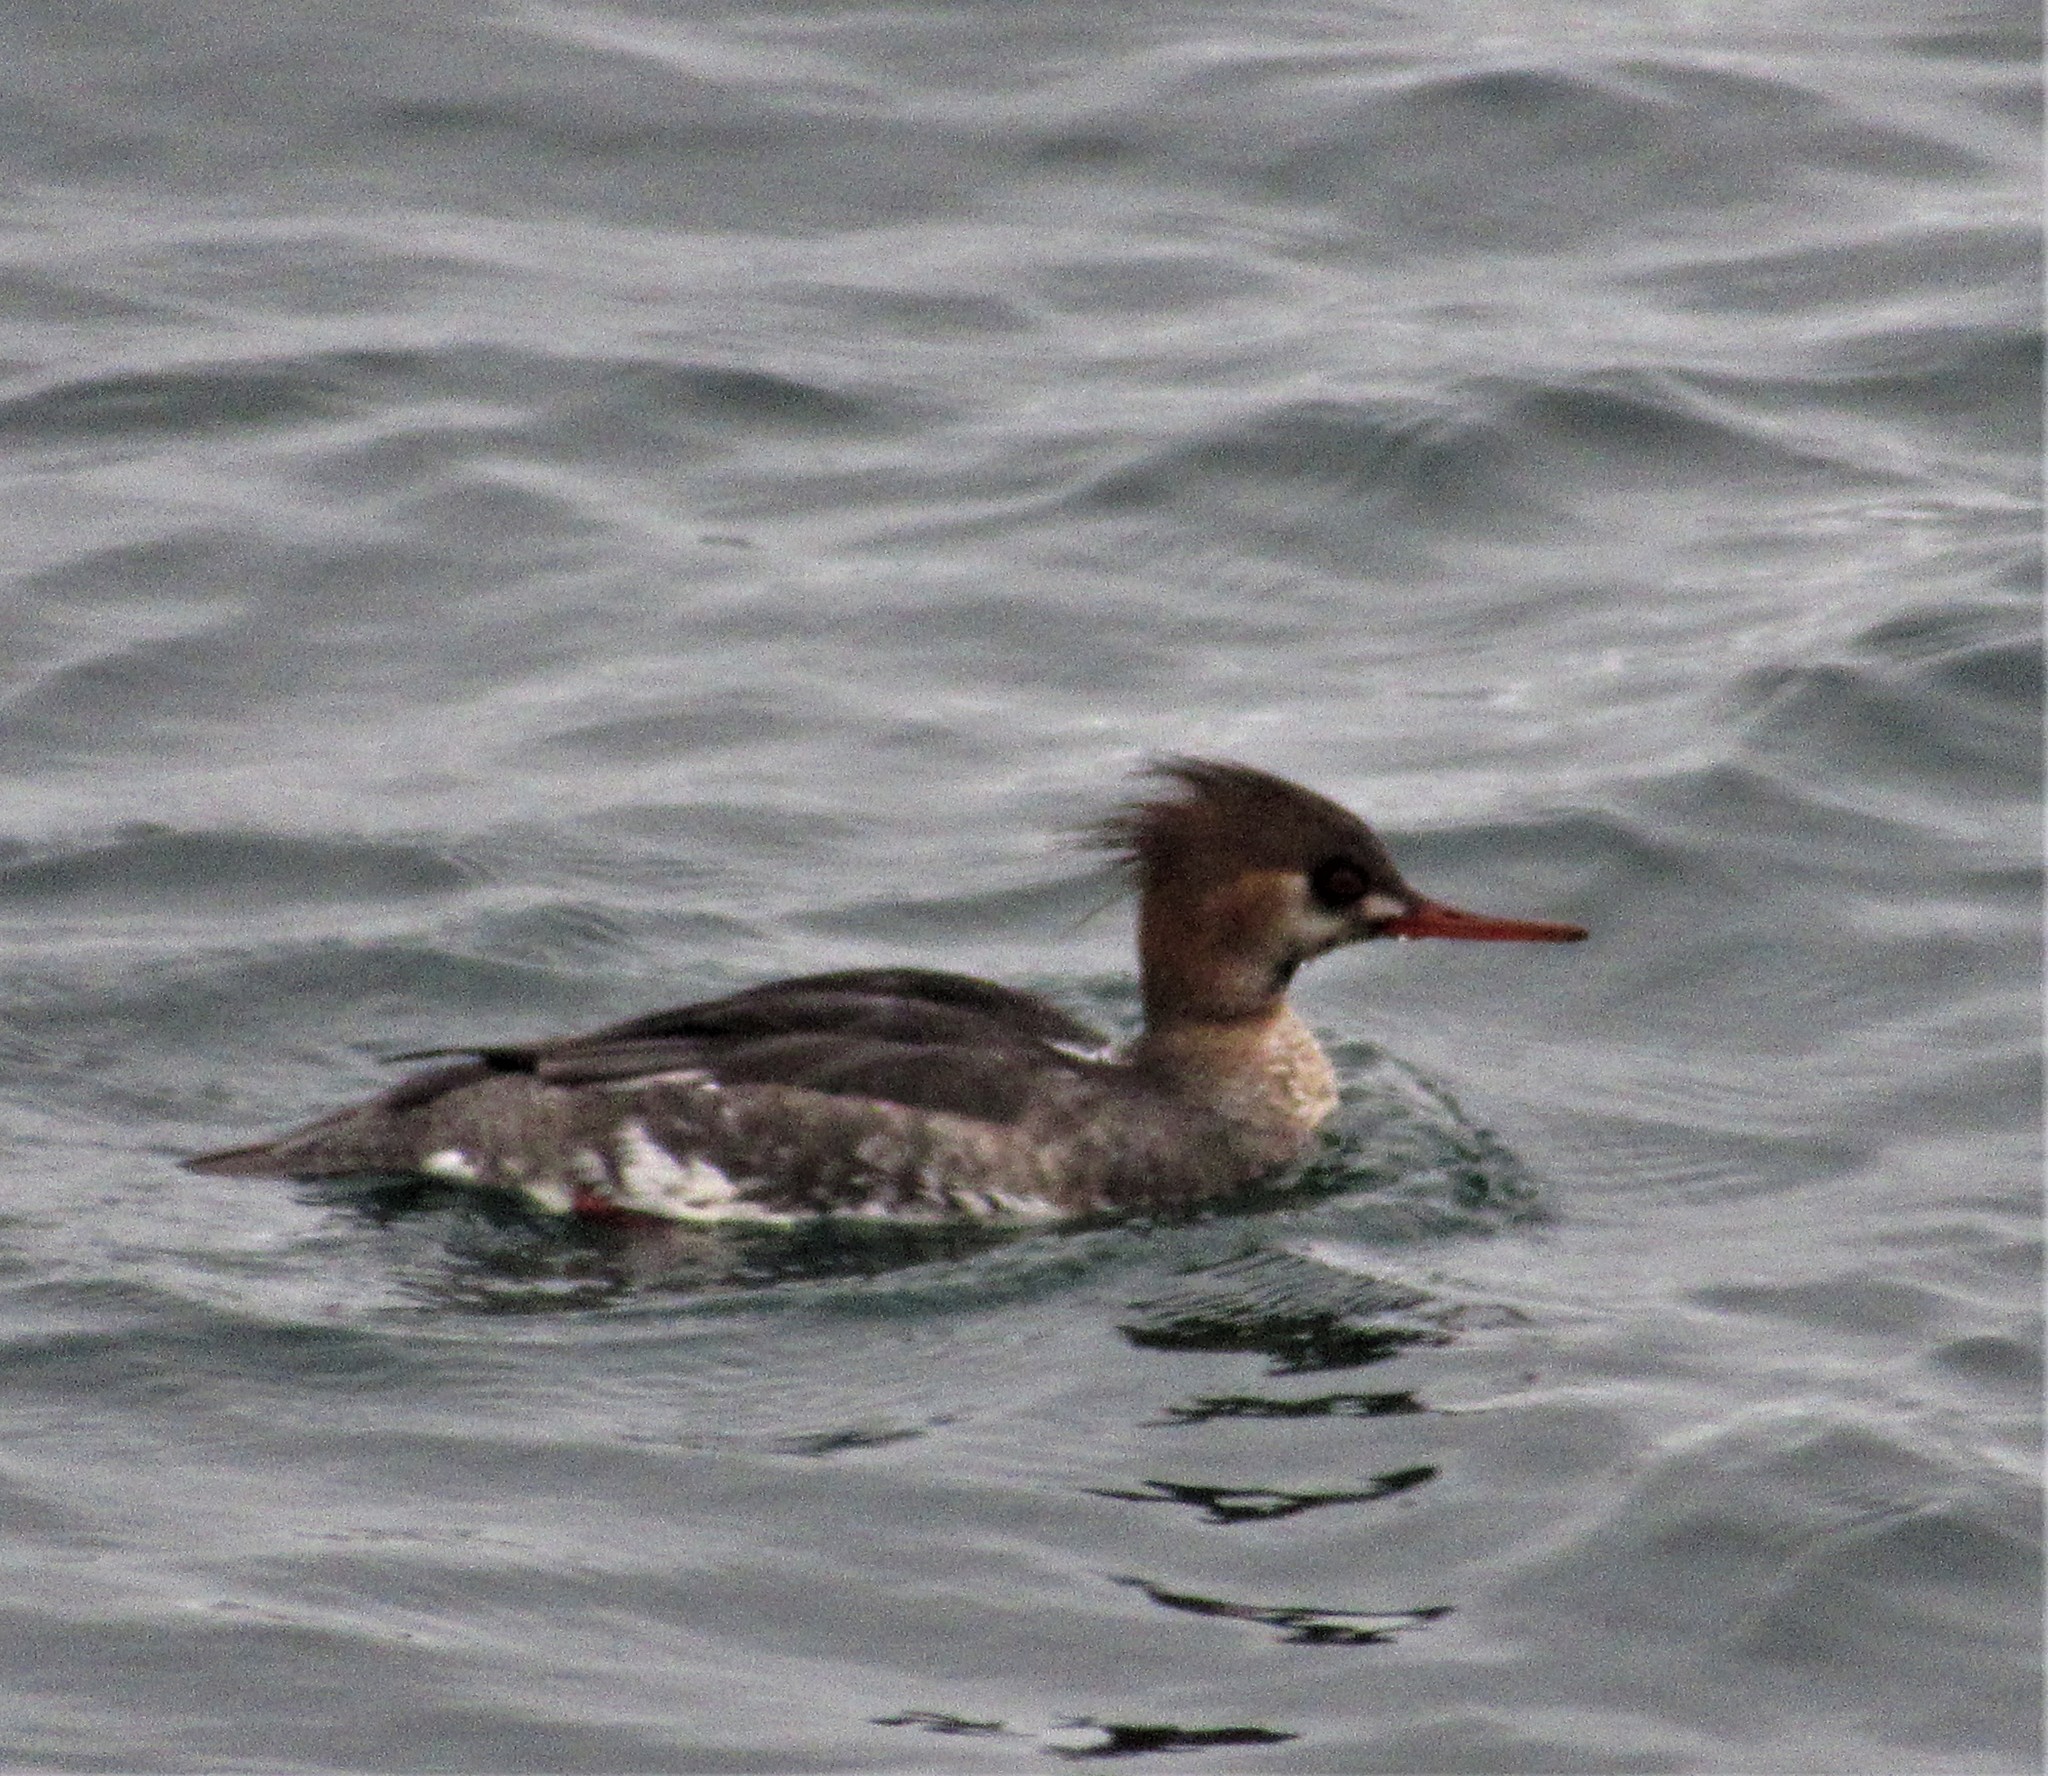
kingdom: Animalia
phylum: Chordata
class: Aves
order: Anseriformes
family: Anatidae
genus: Mergus
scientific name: Mergus serrator
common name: Red-breasted merganser
